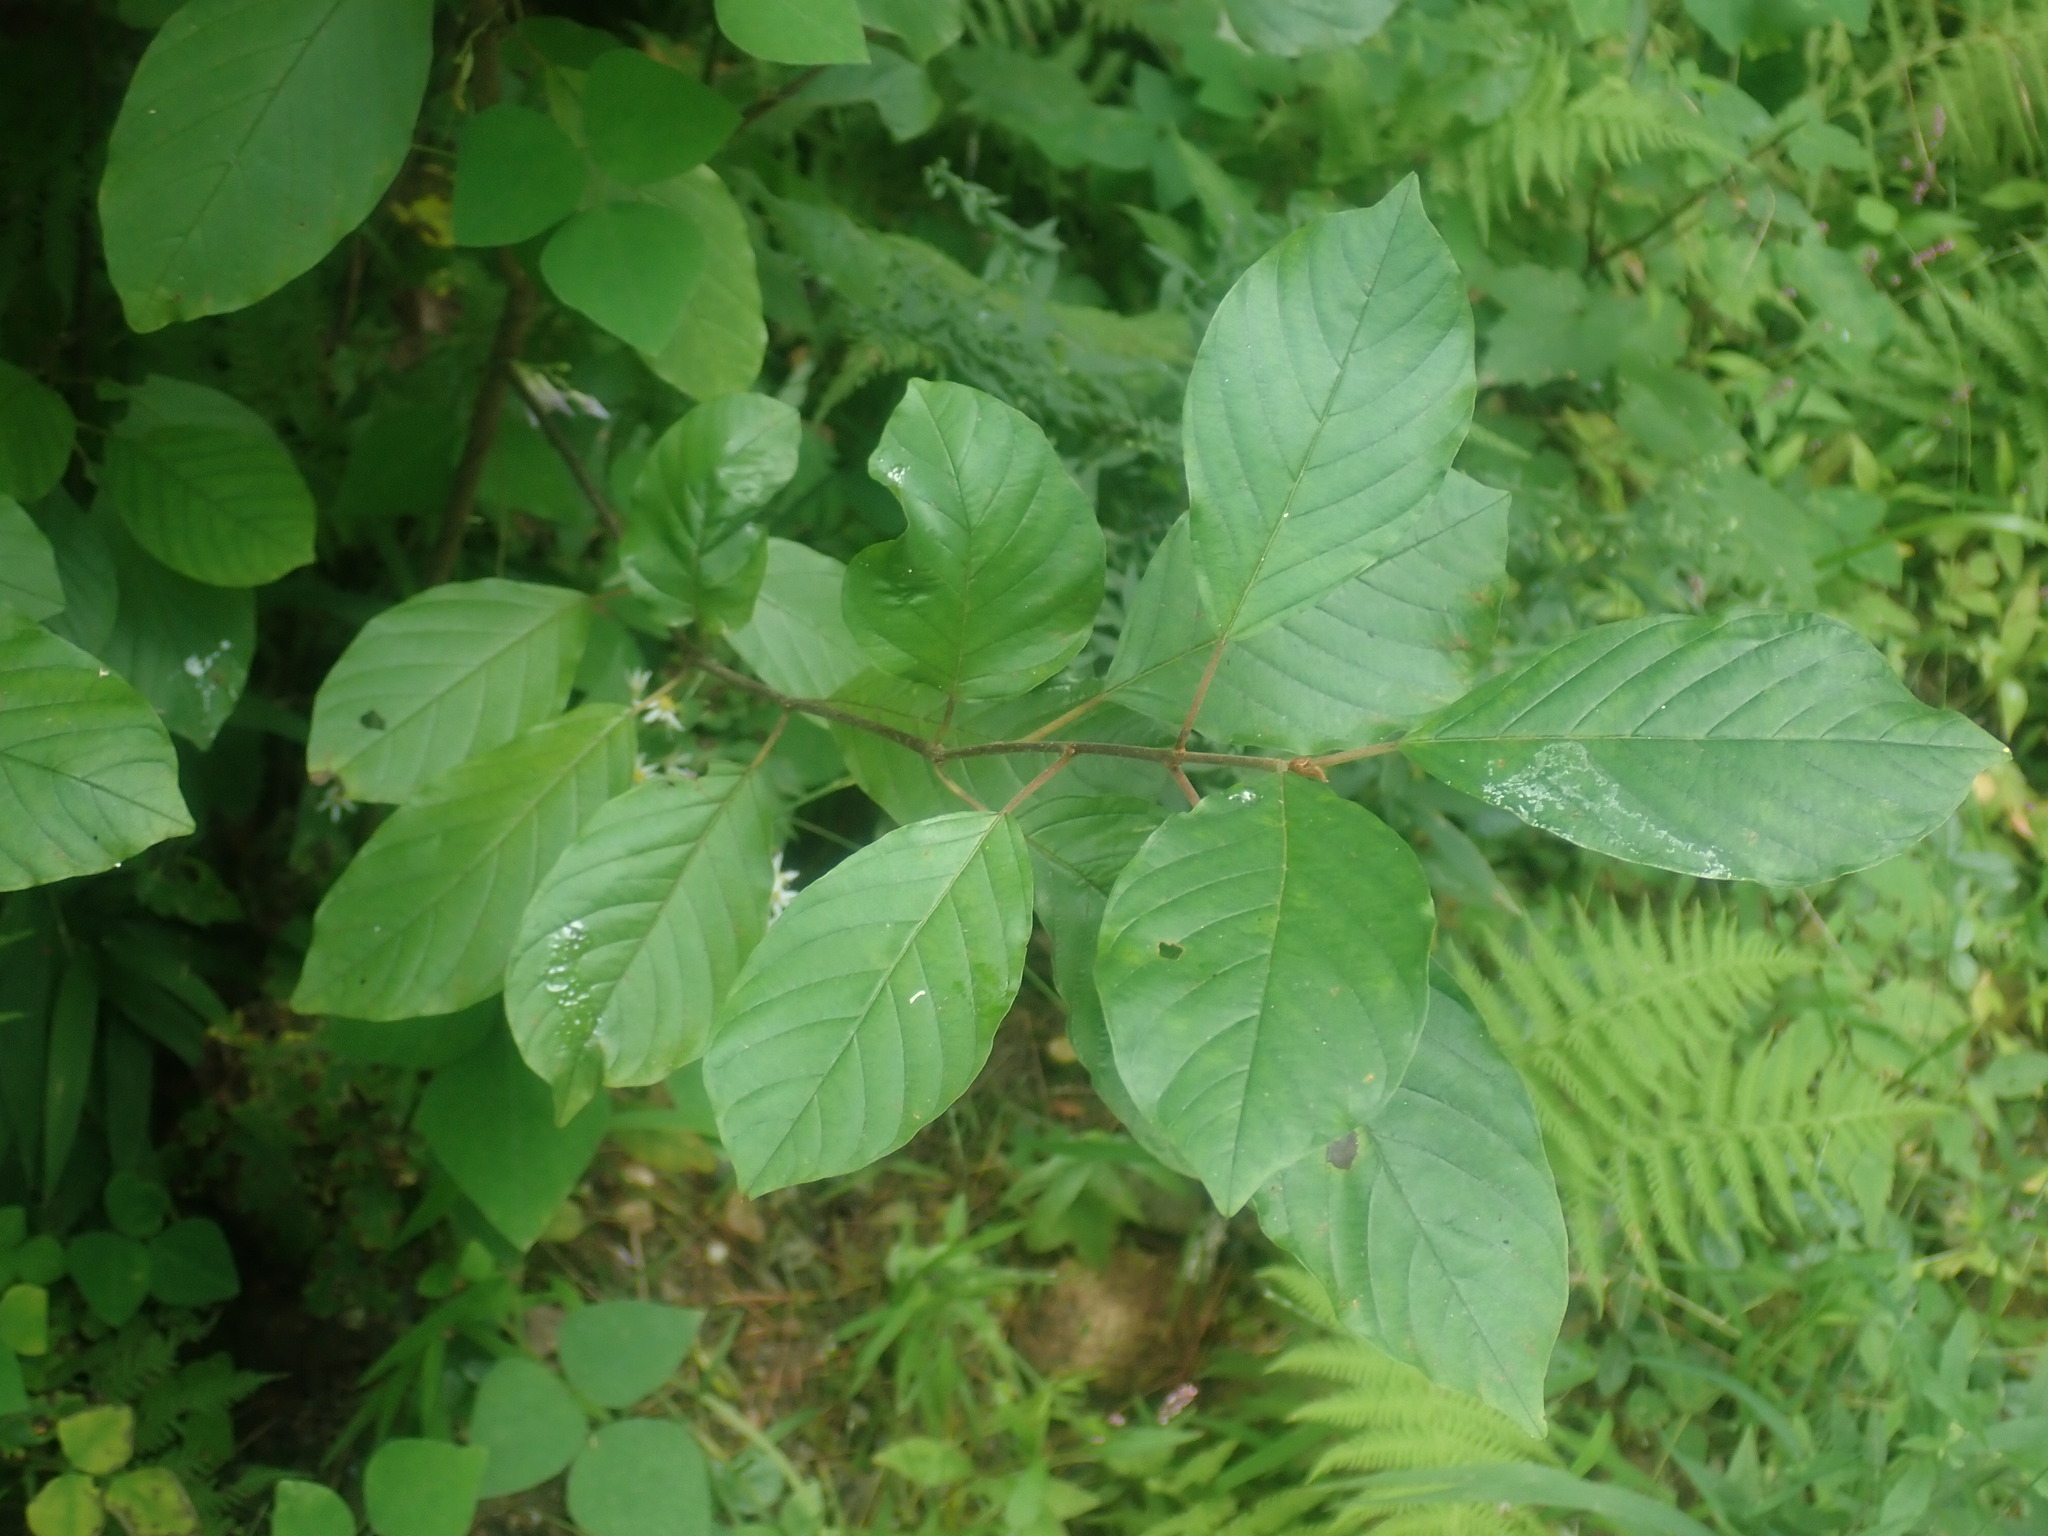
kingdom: Plantae
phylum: Tracheophyta
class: Magnoliopsida
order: Rosales
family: Rhamnaceae
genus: Frangula
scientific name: Frangula alnus
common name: Alder buckthorn
